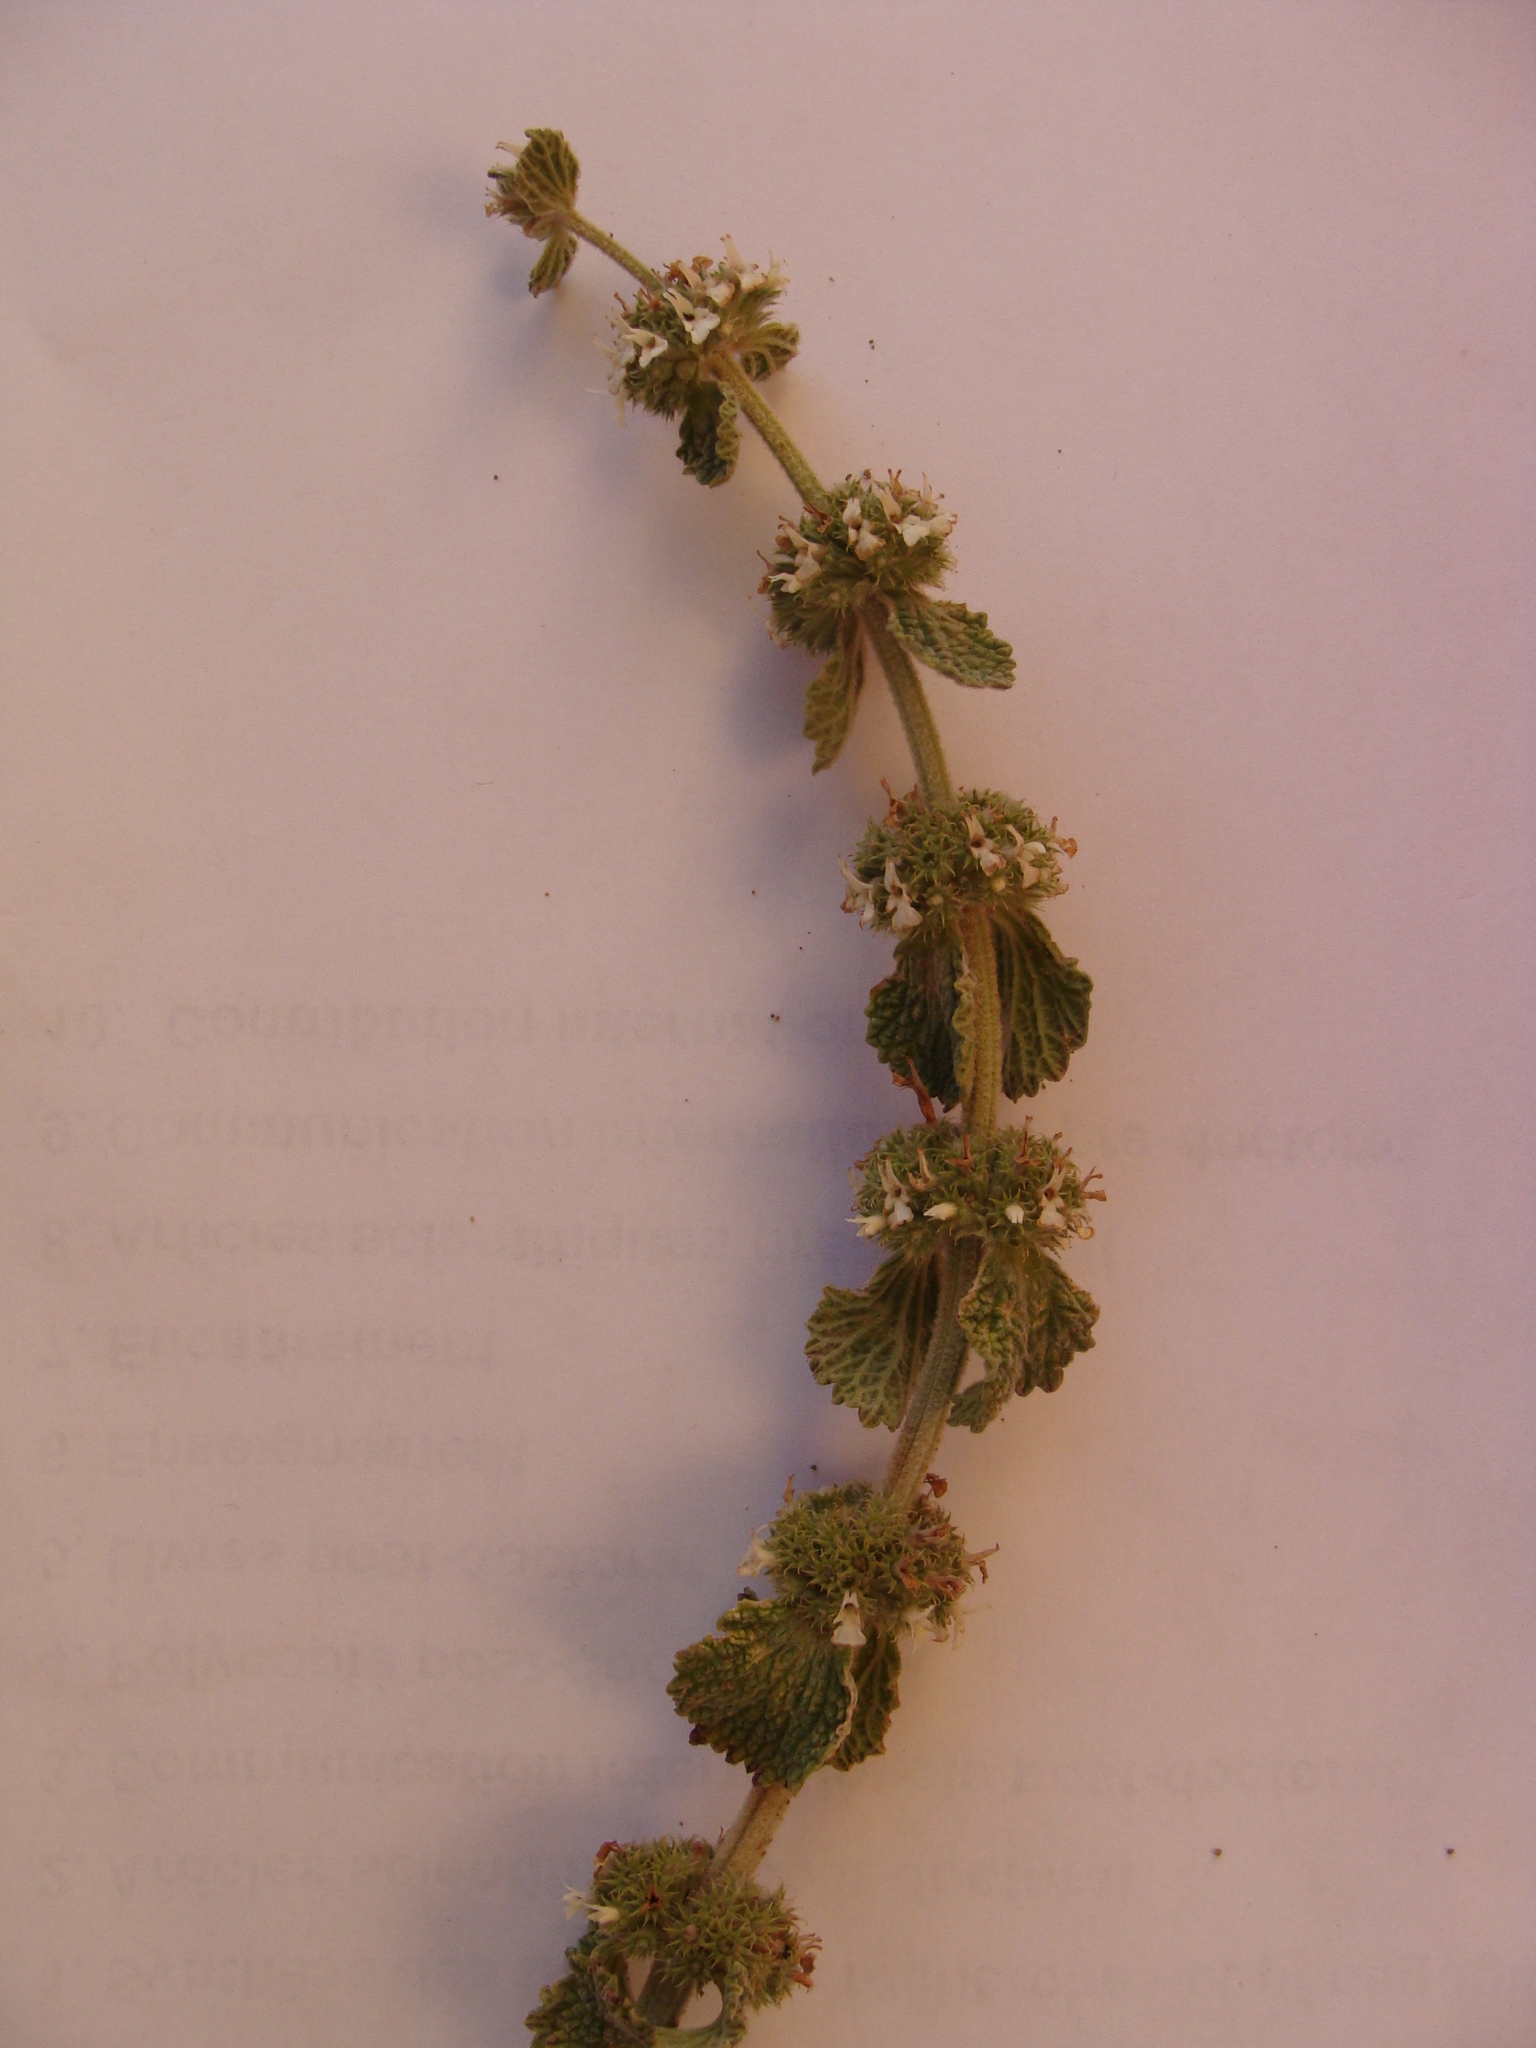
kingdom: Plantae
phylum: Tracheophyta
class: Magnoliopsida
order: Lamiales
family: Lamiaceae
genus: Marrubium
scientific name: Marrubium vulgare
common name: Horehound
